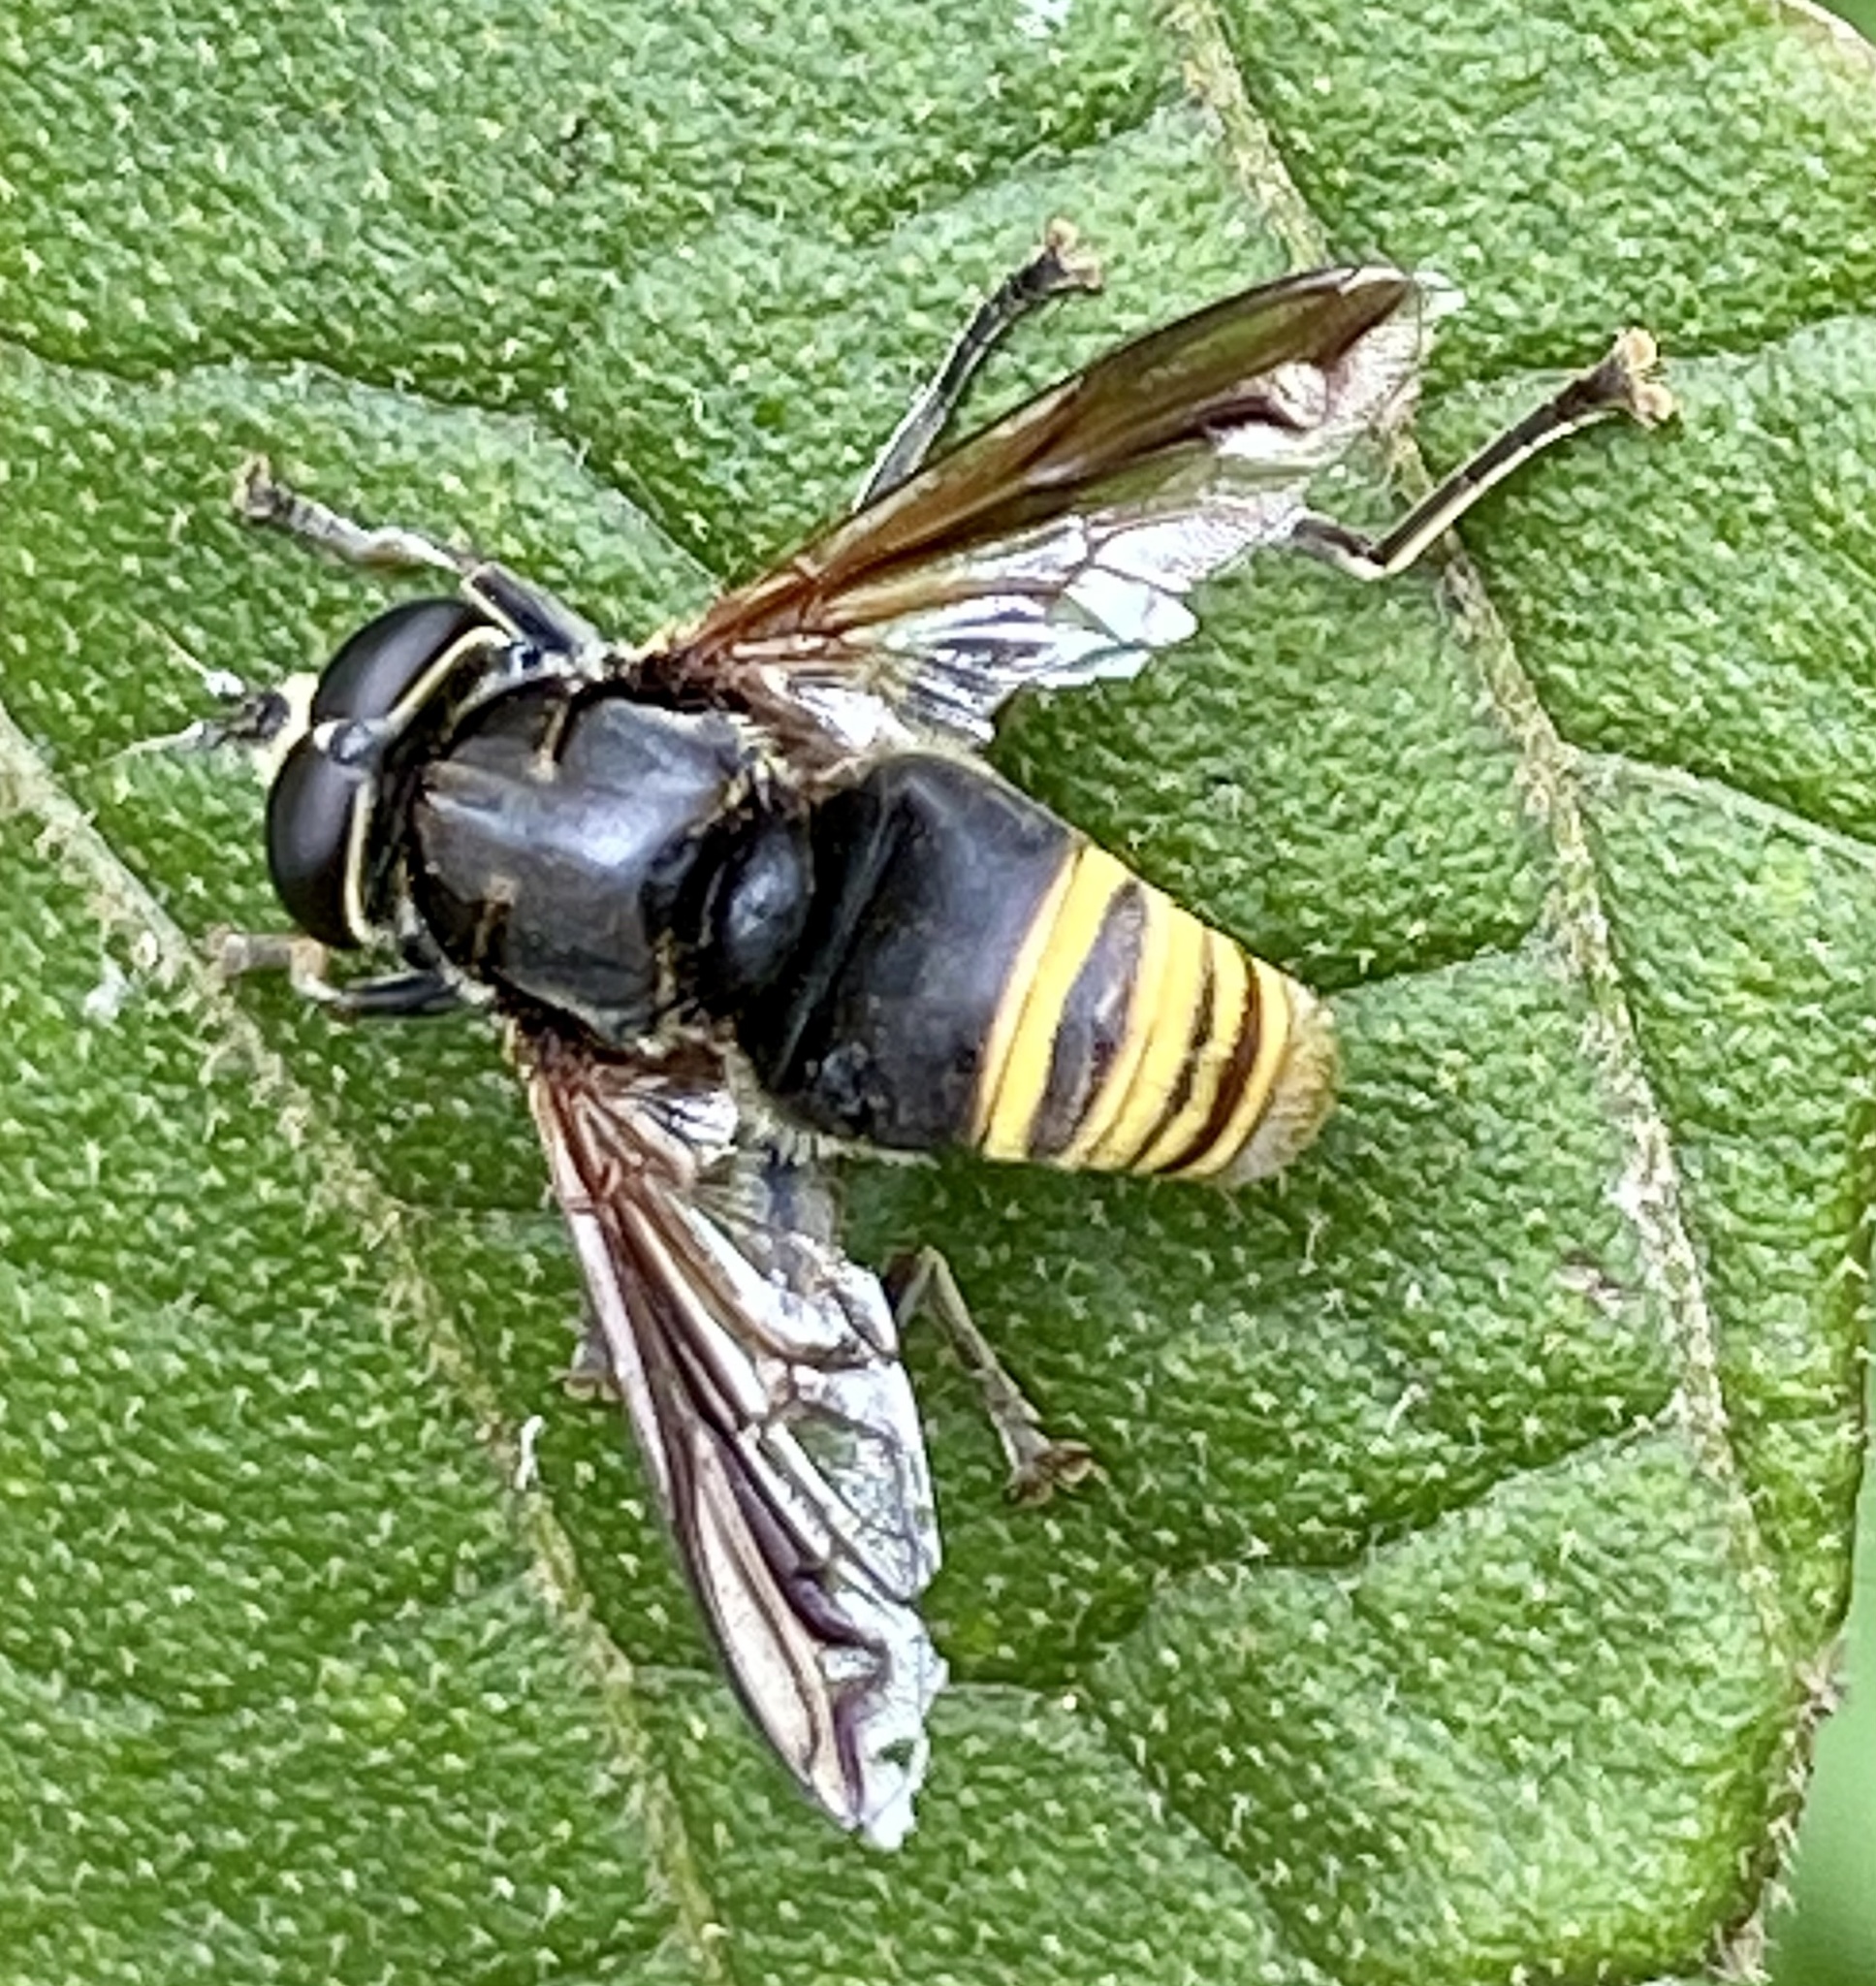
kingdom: Animalia
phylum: Arthropoda
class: Insecta
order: Diptera
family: Syrphidae
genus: Meromacrus
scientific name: Meromacrus nectarinoides
